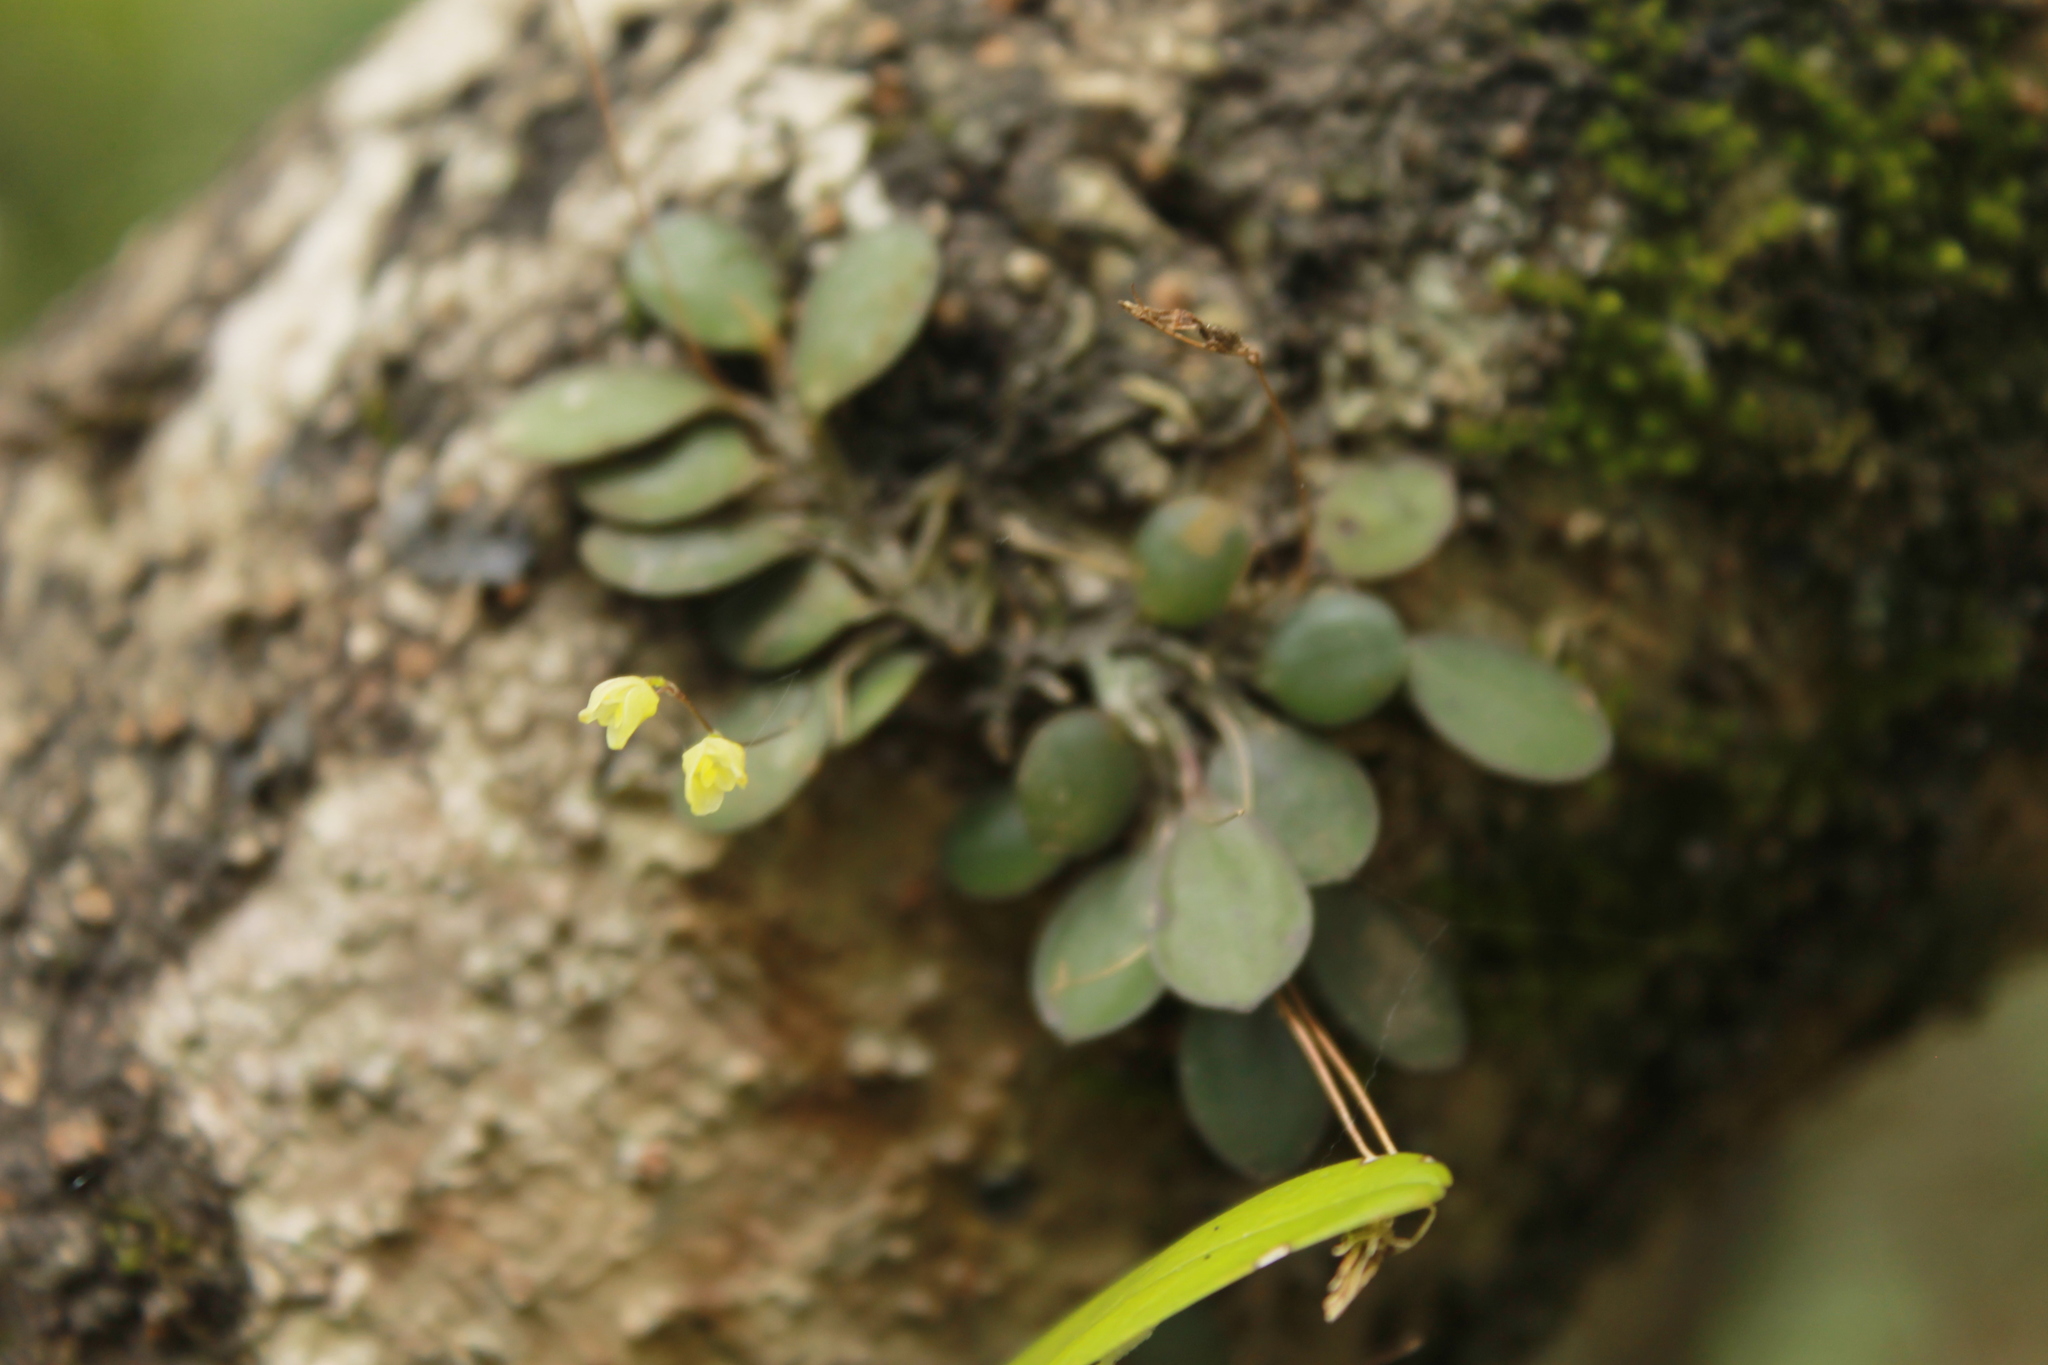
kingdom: Plantae
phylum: Tracheophyta
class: Liliopsida
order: Asparagales
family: Orchidaceae
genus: Specklinia
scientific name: Specklinia digitale
